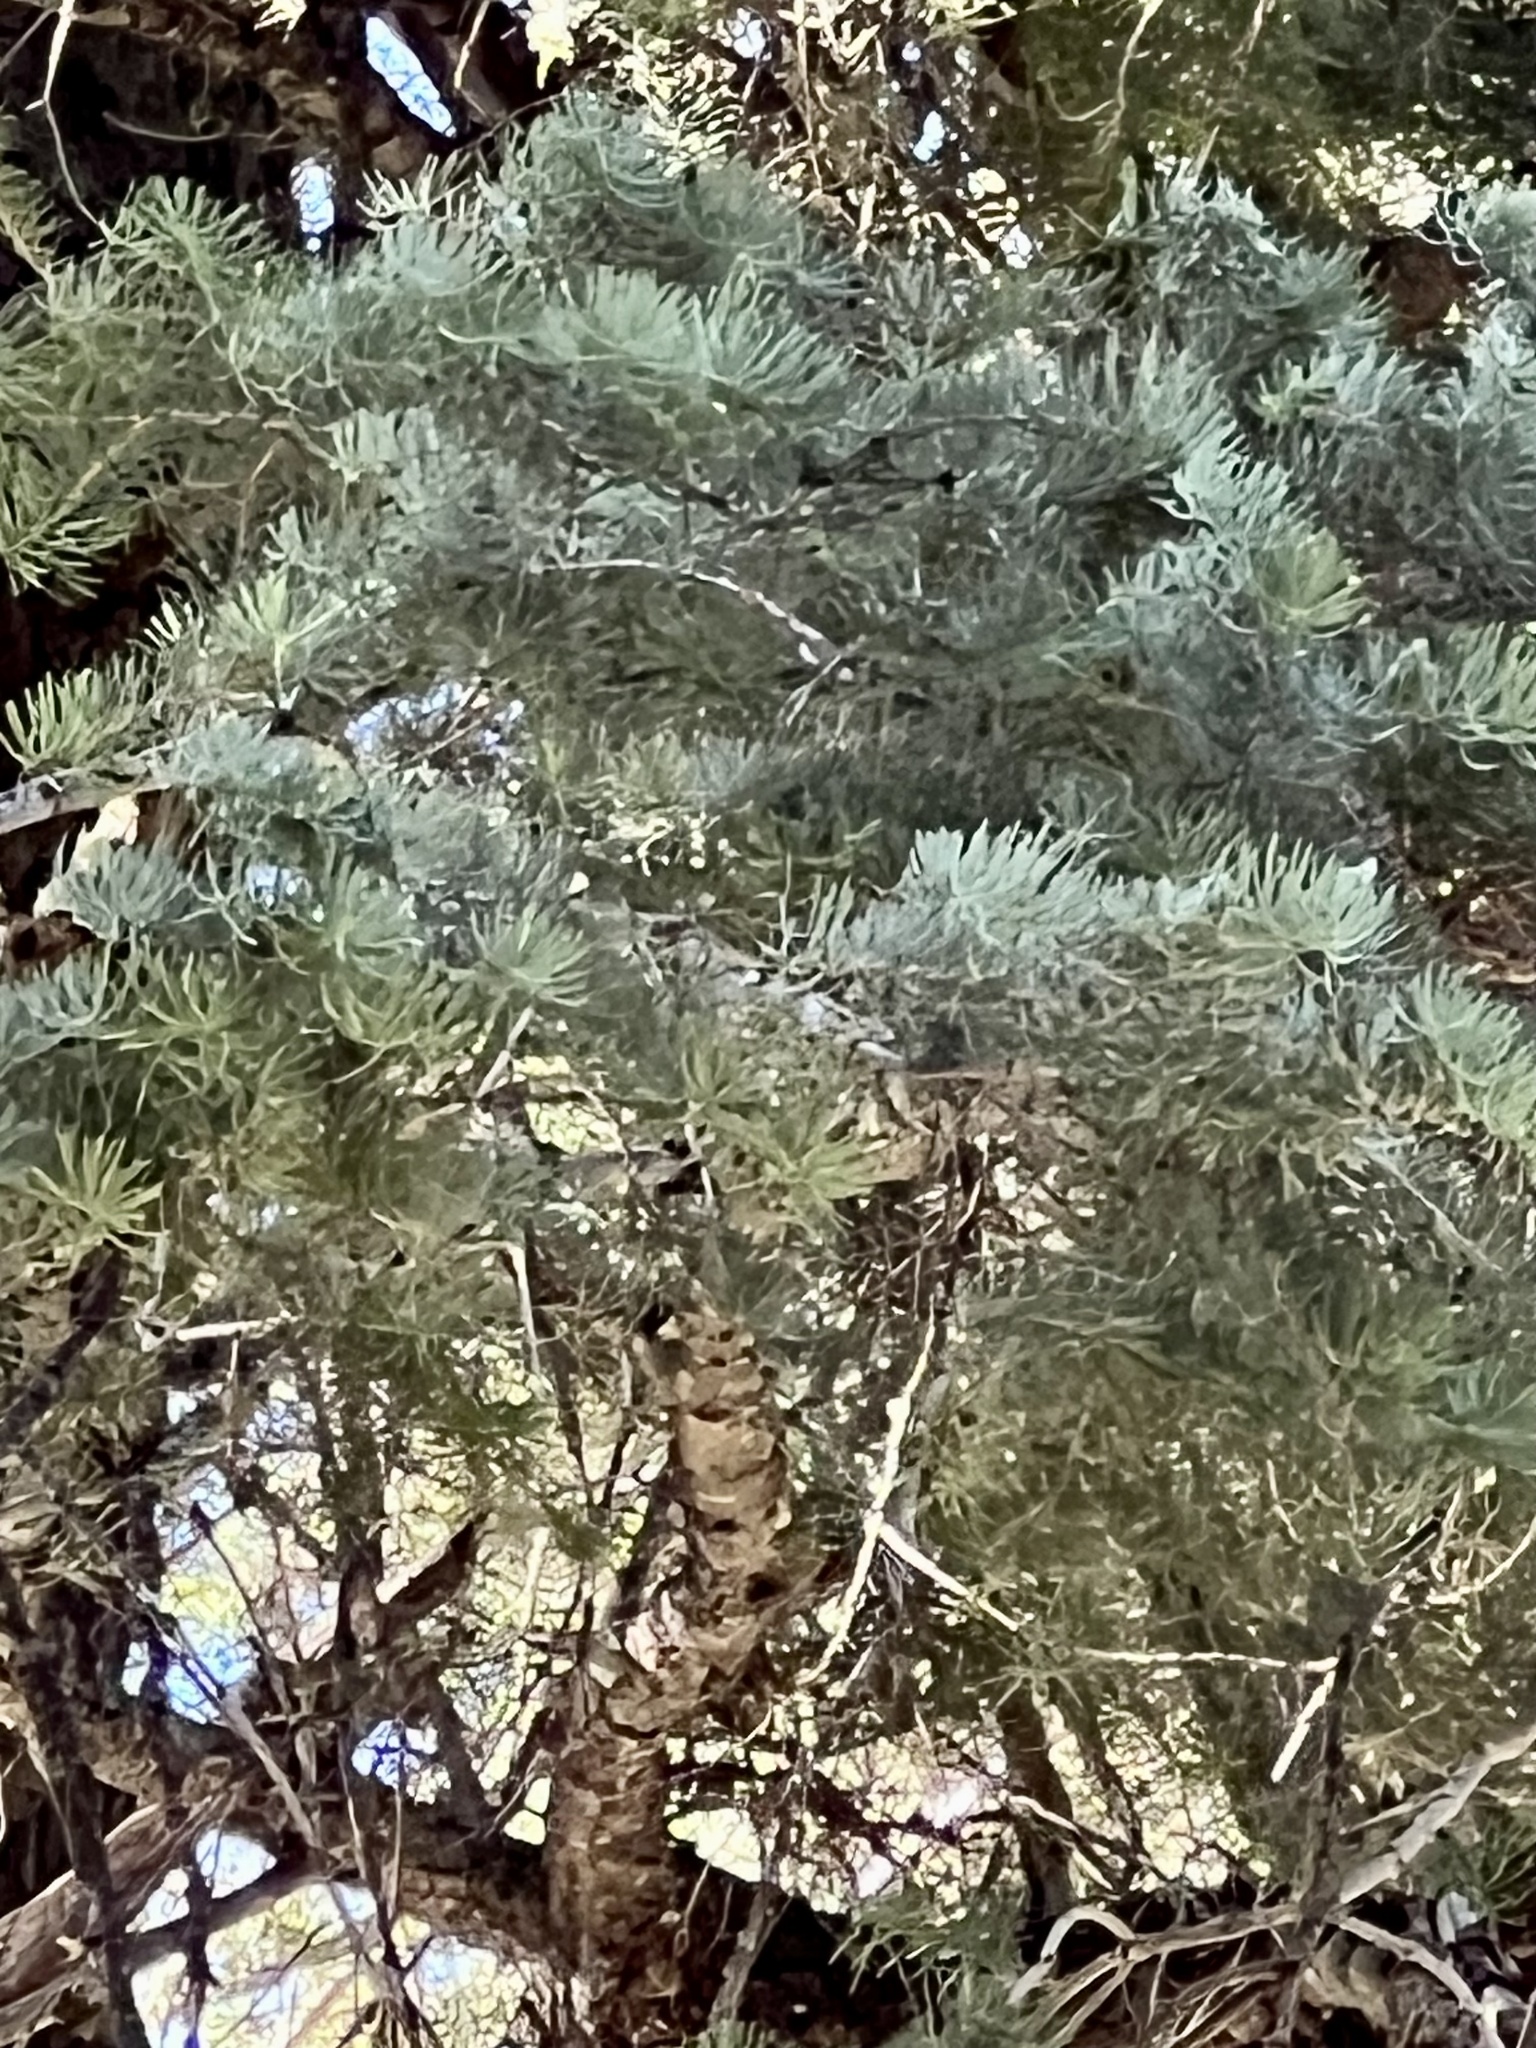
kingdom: Plantae
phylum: Tracheophyta
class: Pinopsida
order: Pinales
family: Pinaceae
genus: Abies
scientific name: Abies concolor
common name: Colorado fir
